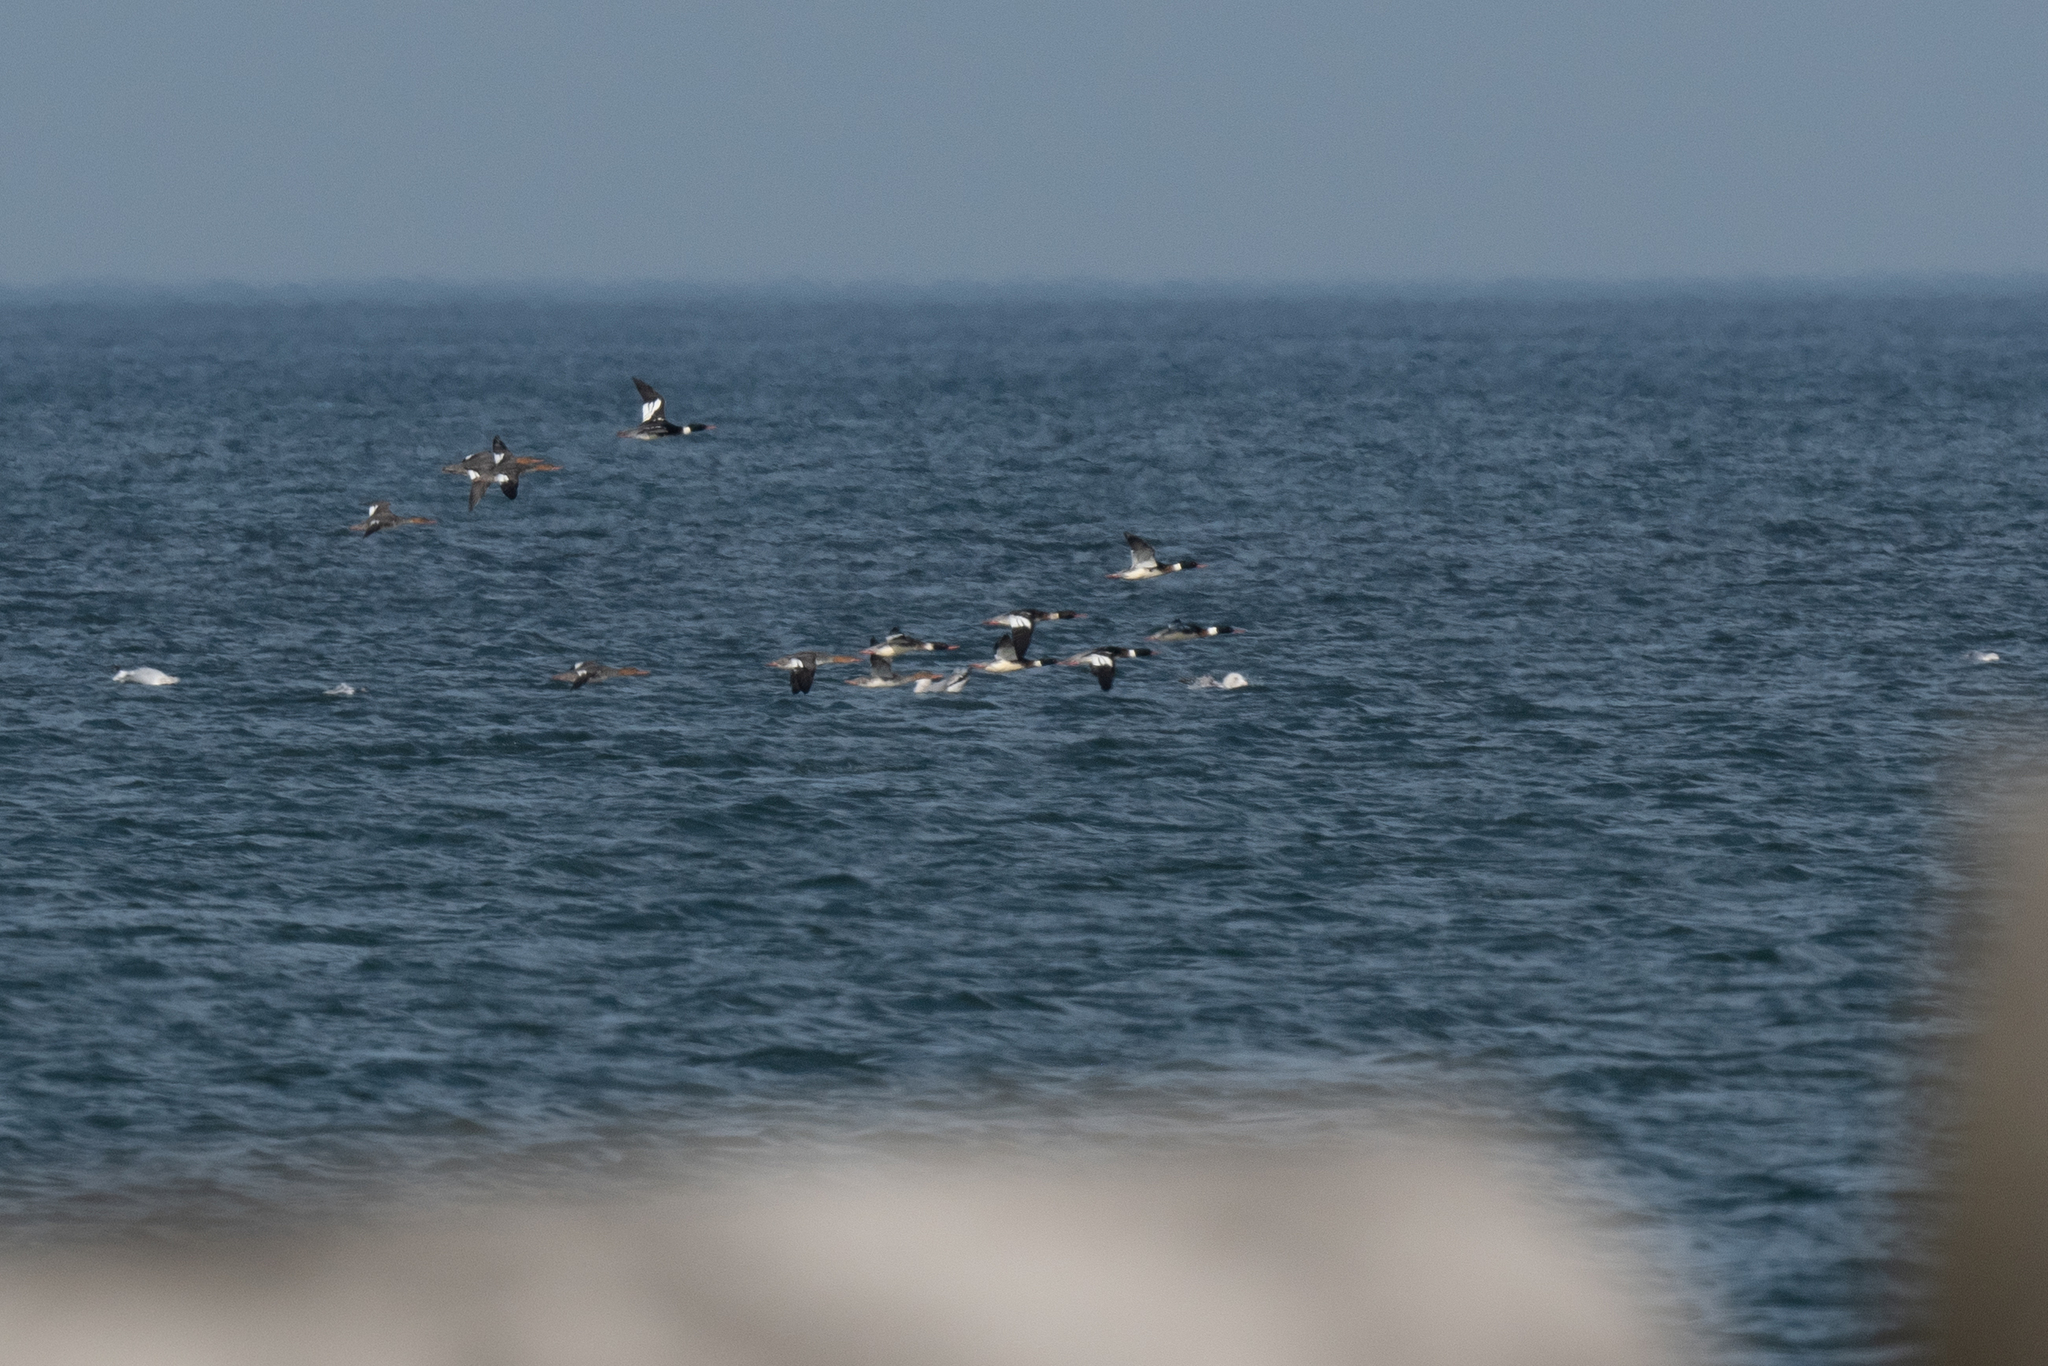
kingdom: Animalia
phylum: Chordata
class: Aves
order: Anseriformes
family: Anatidae
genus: Mergus
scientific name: Mergus serrator
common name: Red-breasted merganser
